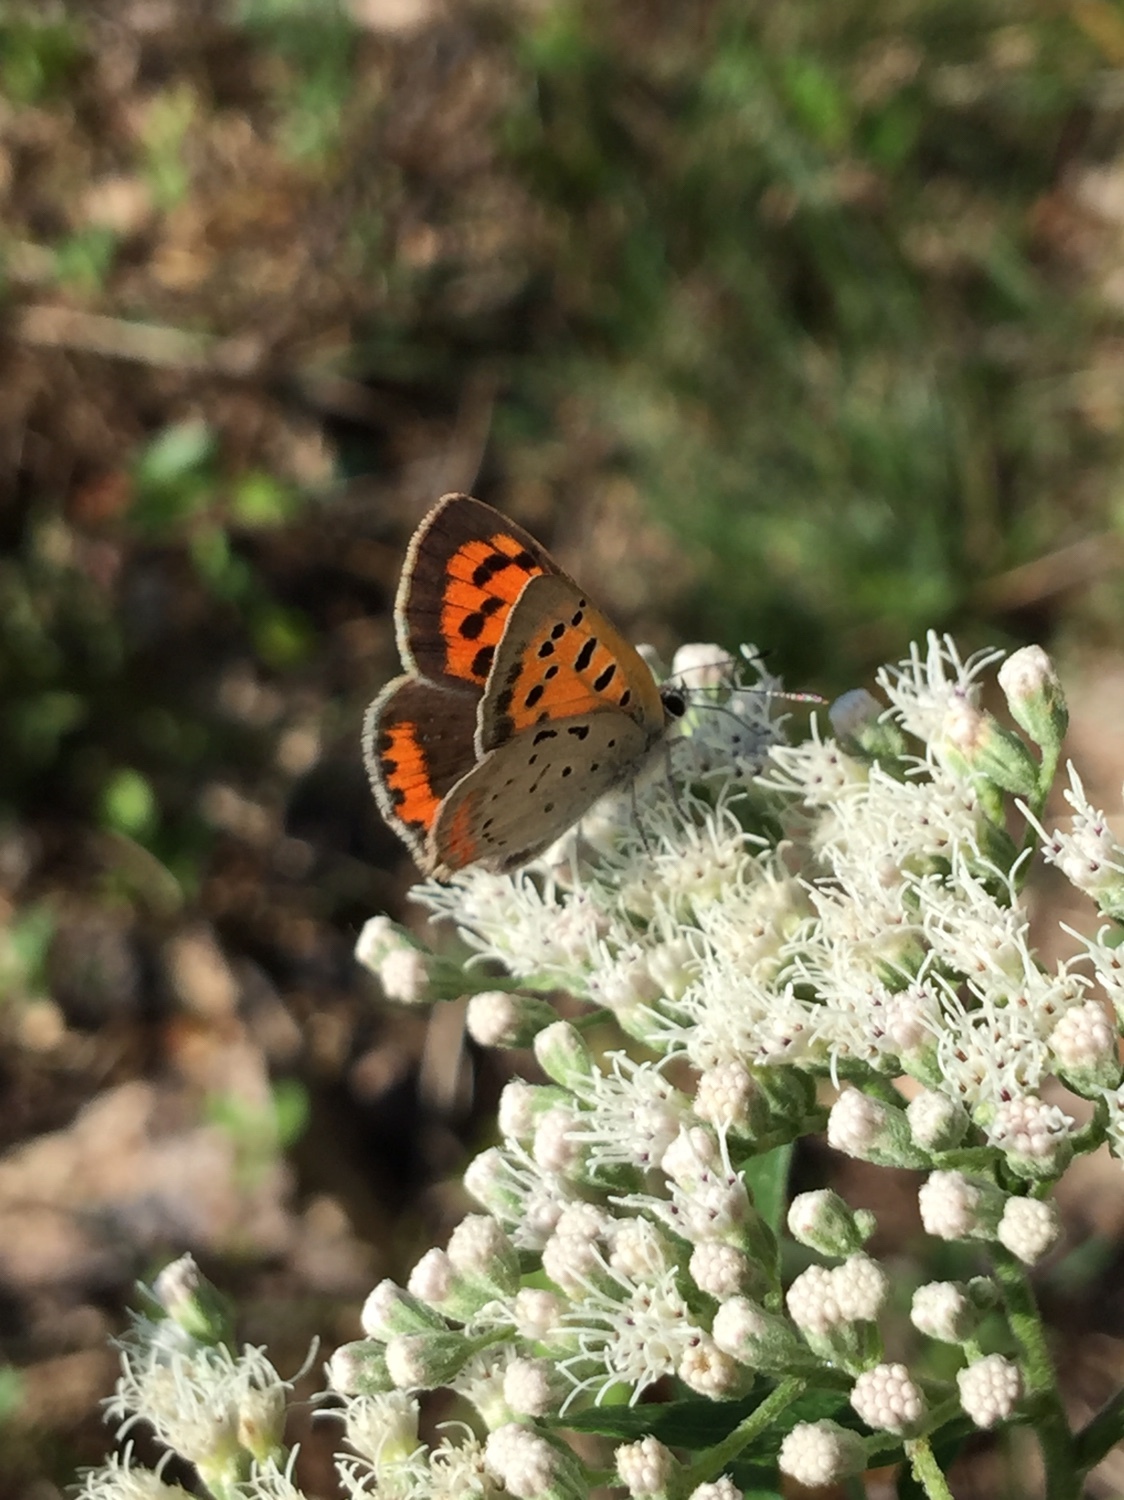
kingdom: Animalia
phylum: Arthropoda
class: Insecta
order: Lepidoptera
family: Lycaenidae
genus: Lycaena
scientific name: Lycaena hypophlaeas
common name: American copper
